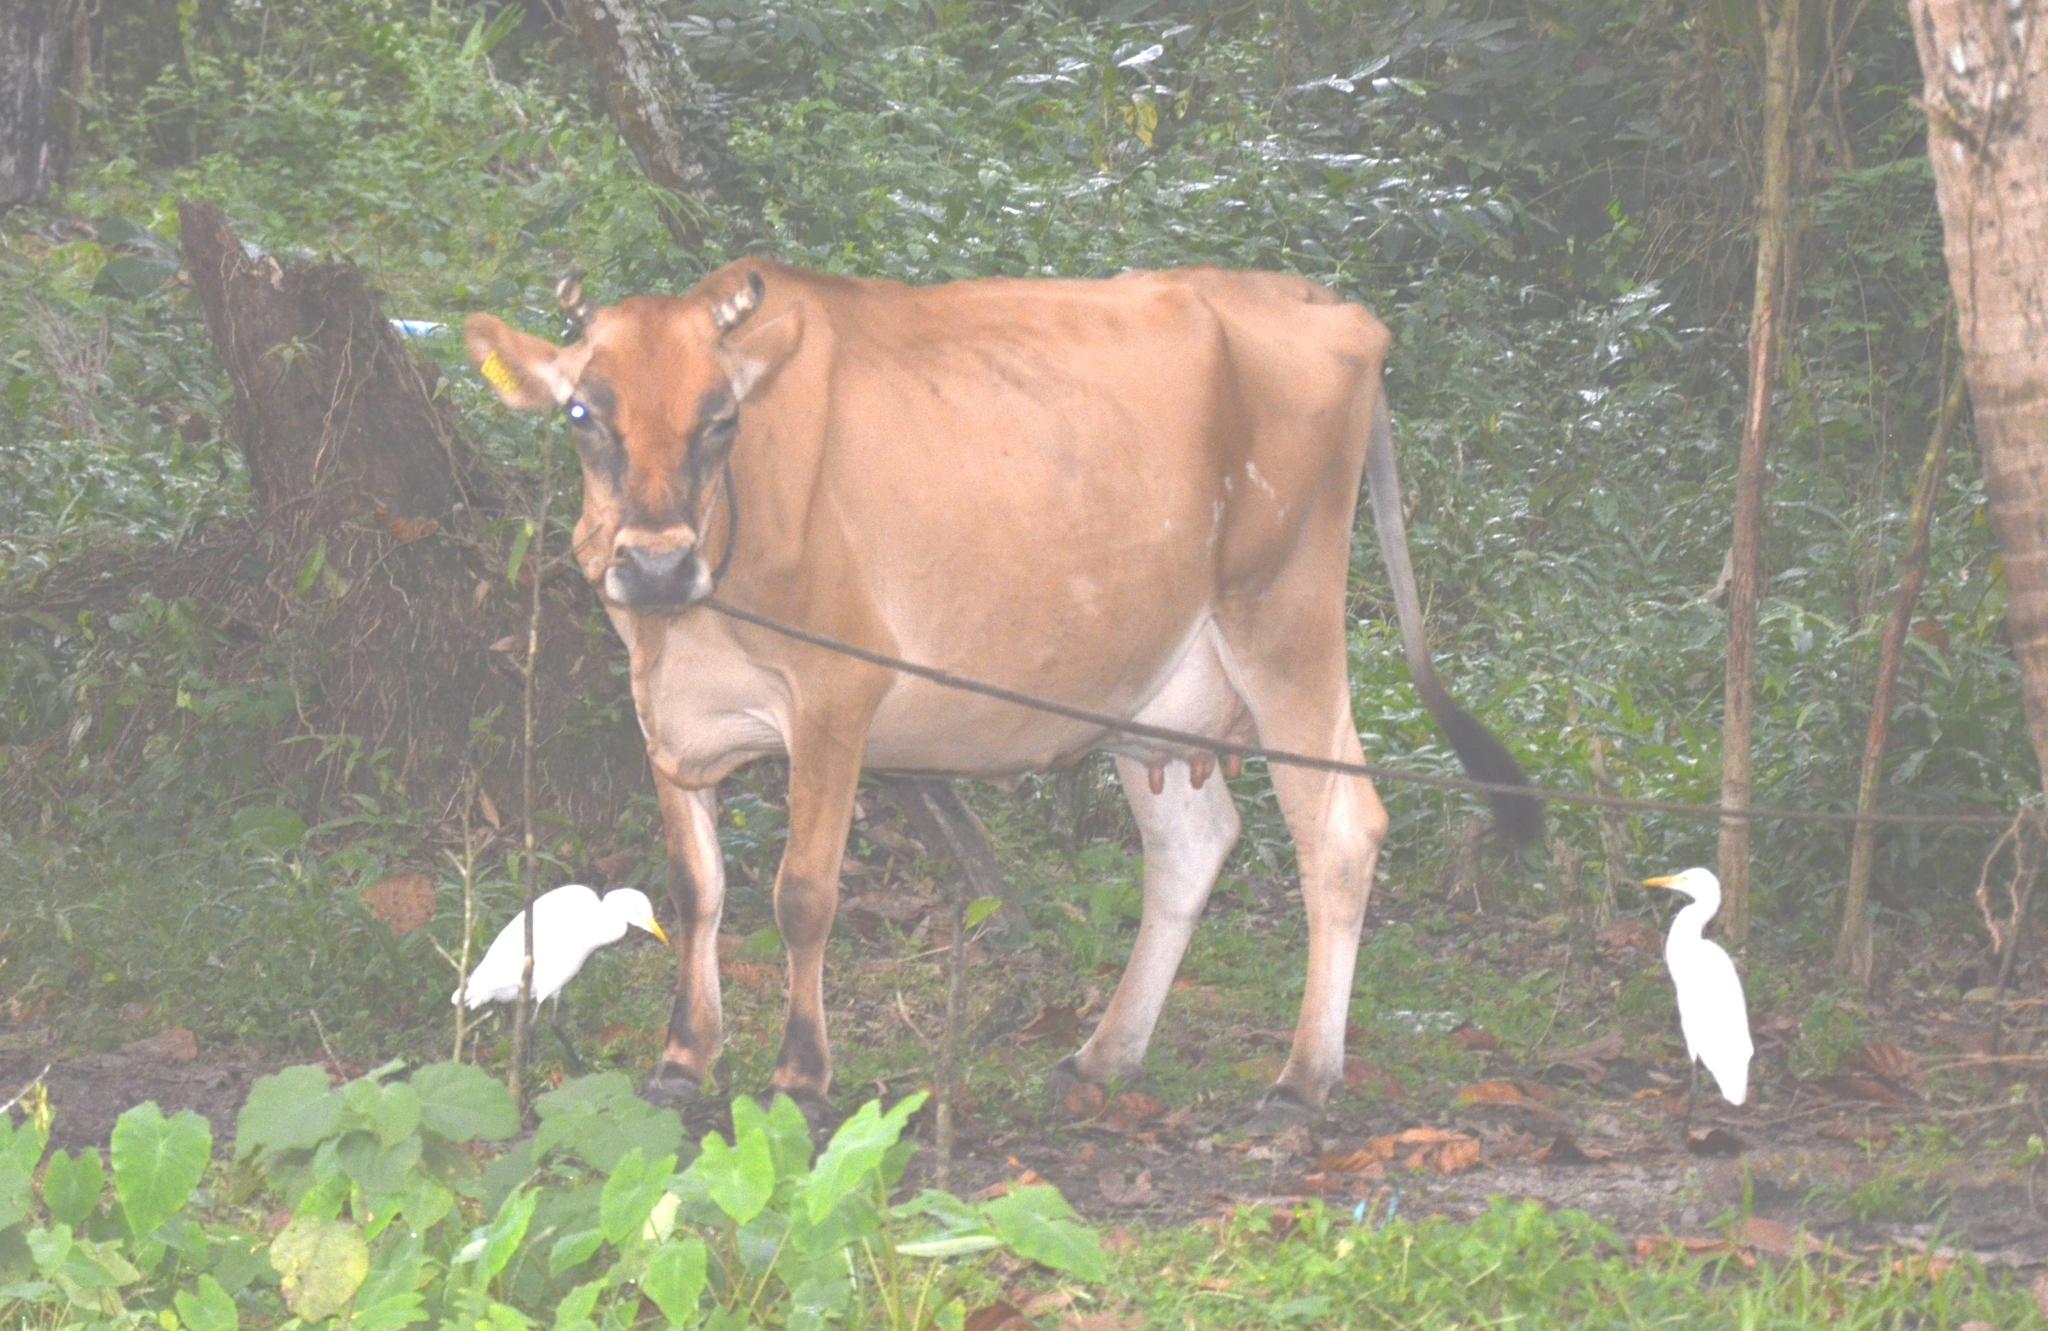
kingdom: Animalia
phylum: Chordata
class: Aves
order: Pelecaniformes
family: Ardeidae
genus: Bubulcus
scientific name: Bubulcus coromandus
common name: Eastern cattle egret
